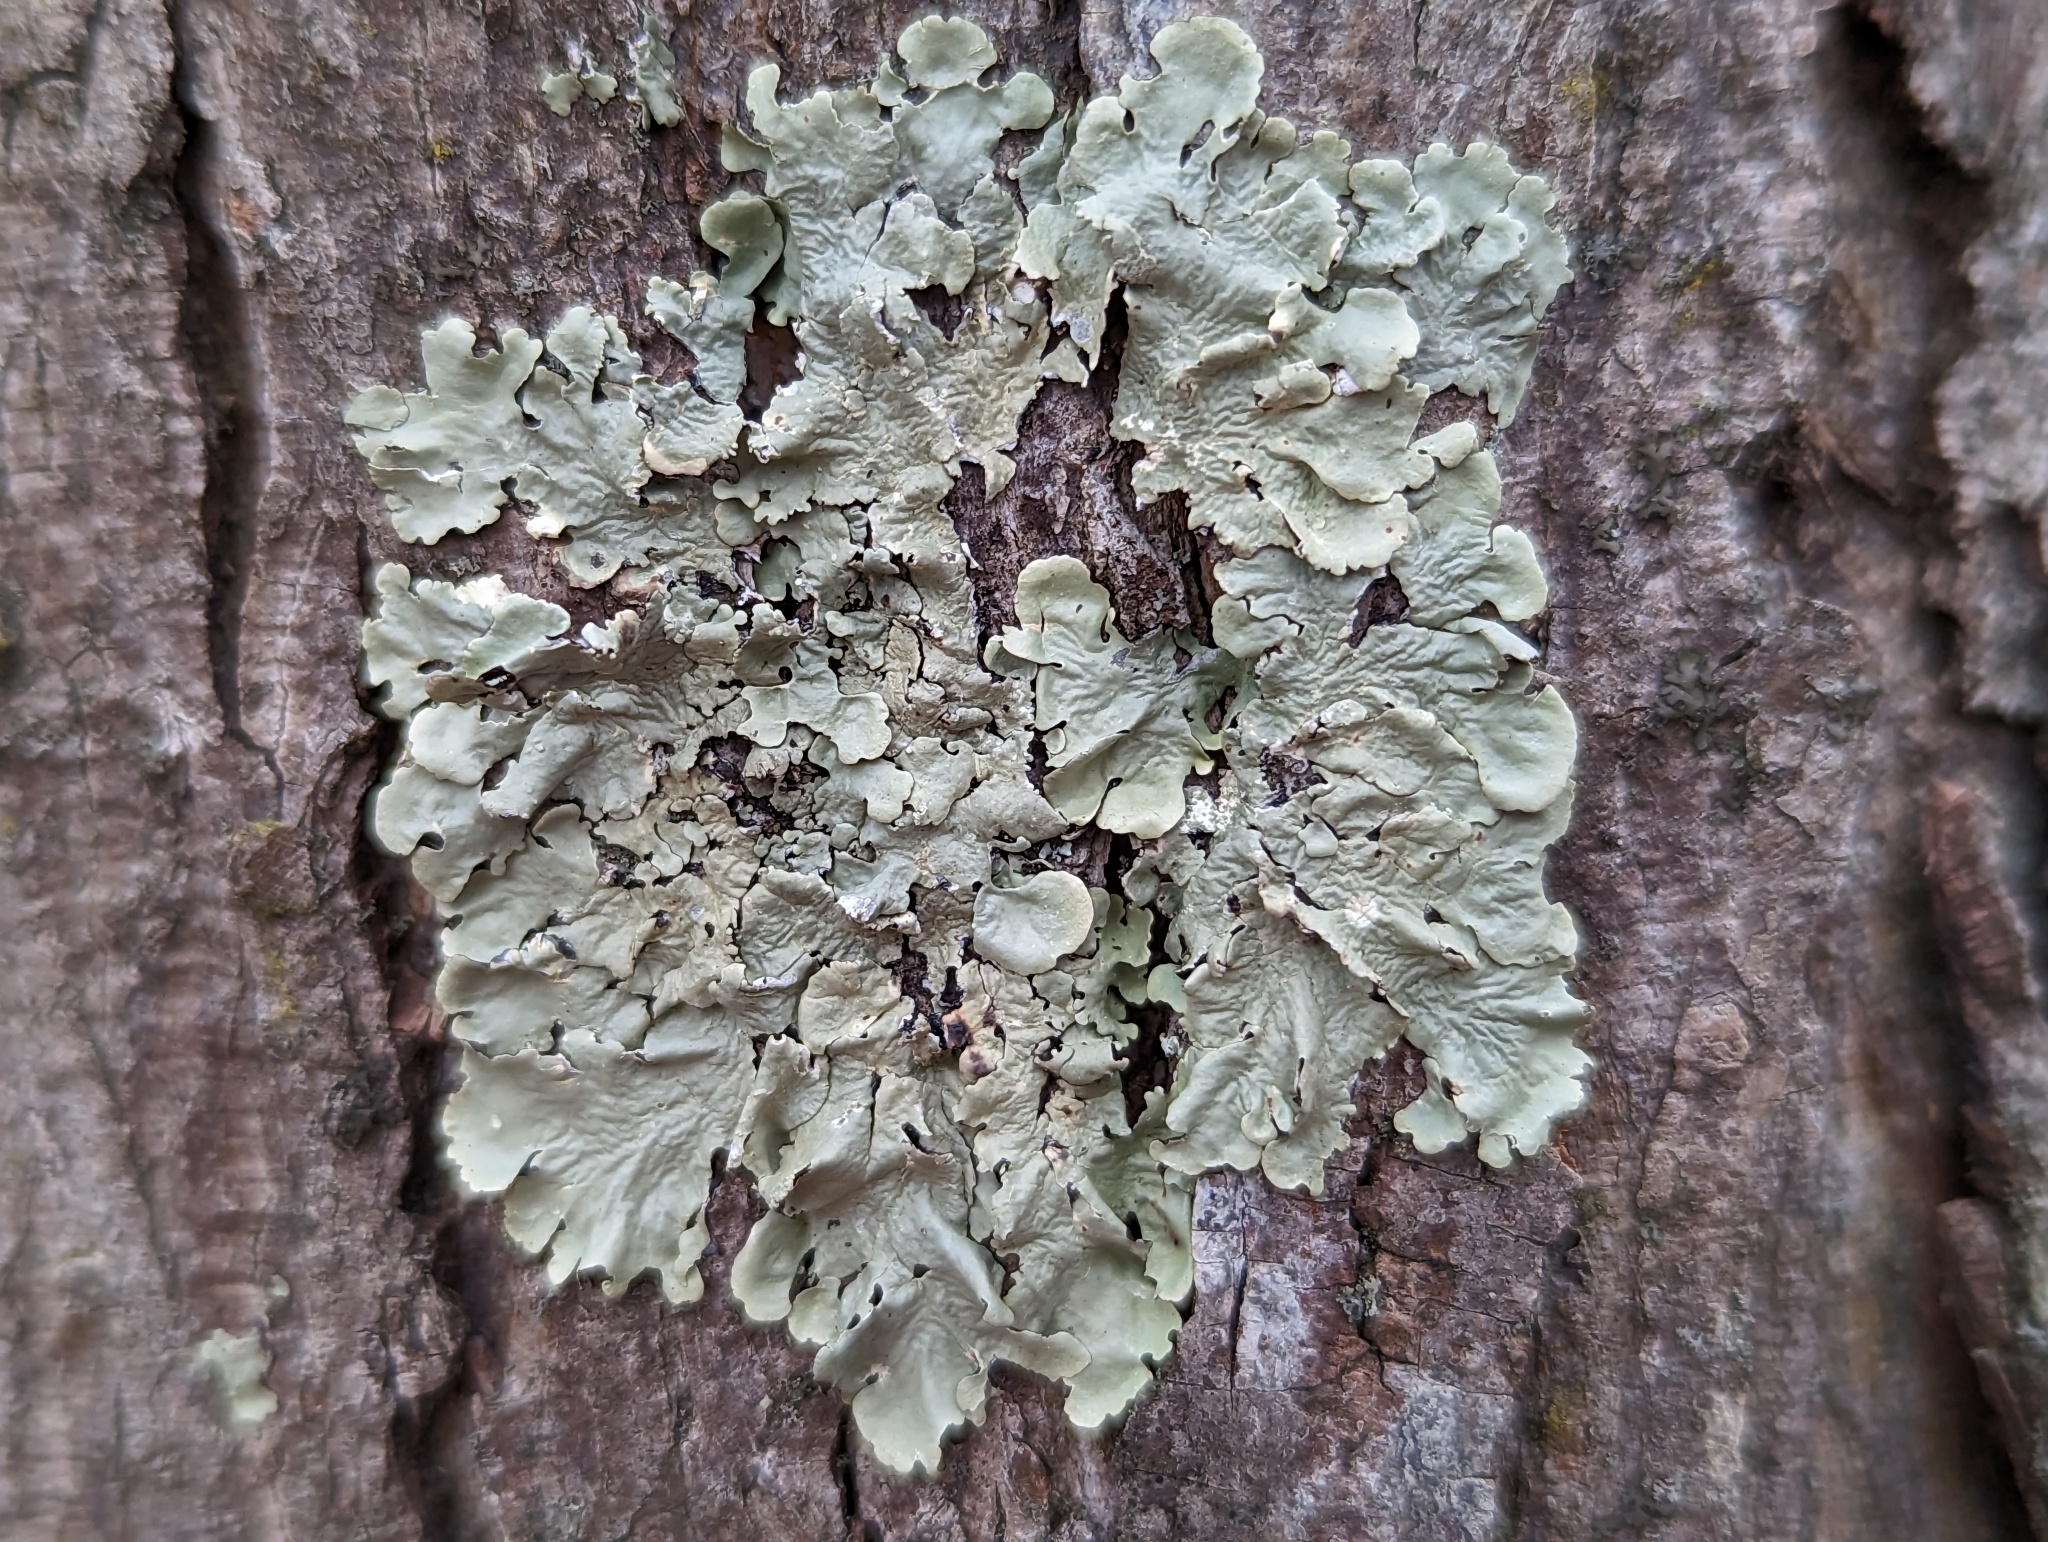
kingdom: Fungi
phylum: Ascomycota
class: Lecanoromycetes
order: Lecanorales
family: Parmeliaceae
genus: Flavoparmelia
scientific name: Flavoparmelia caperata
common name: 40-mile per hour lichen
